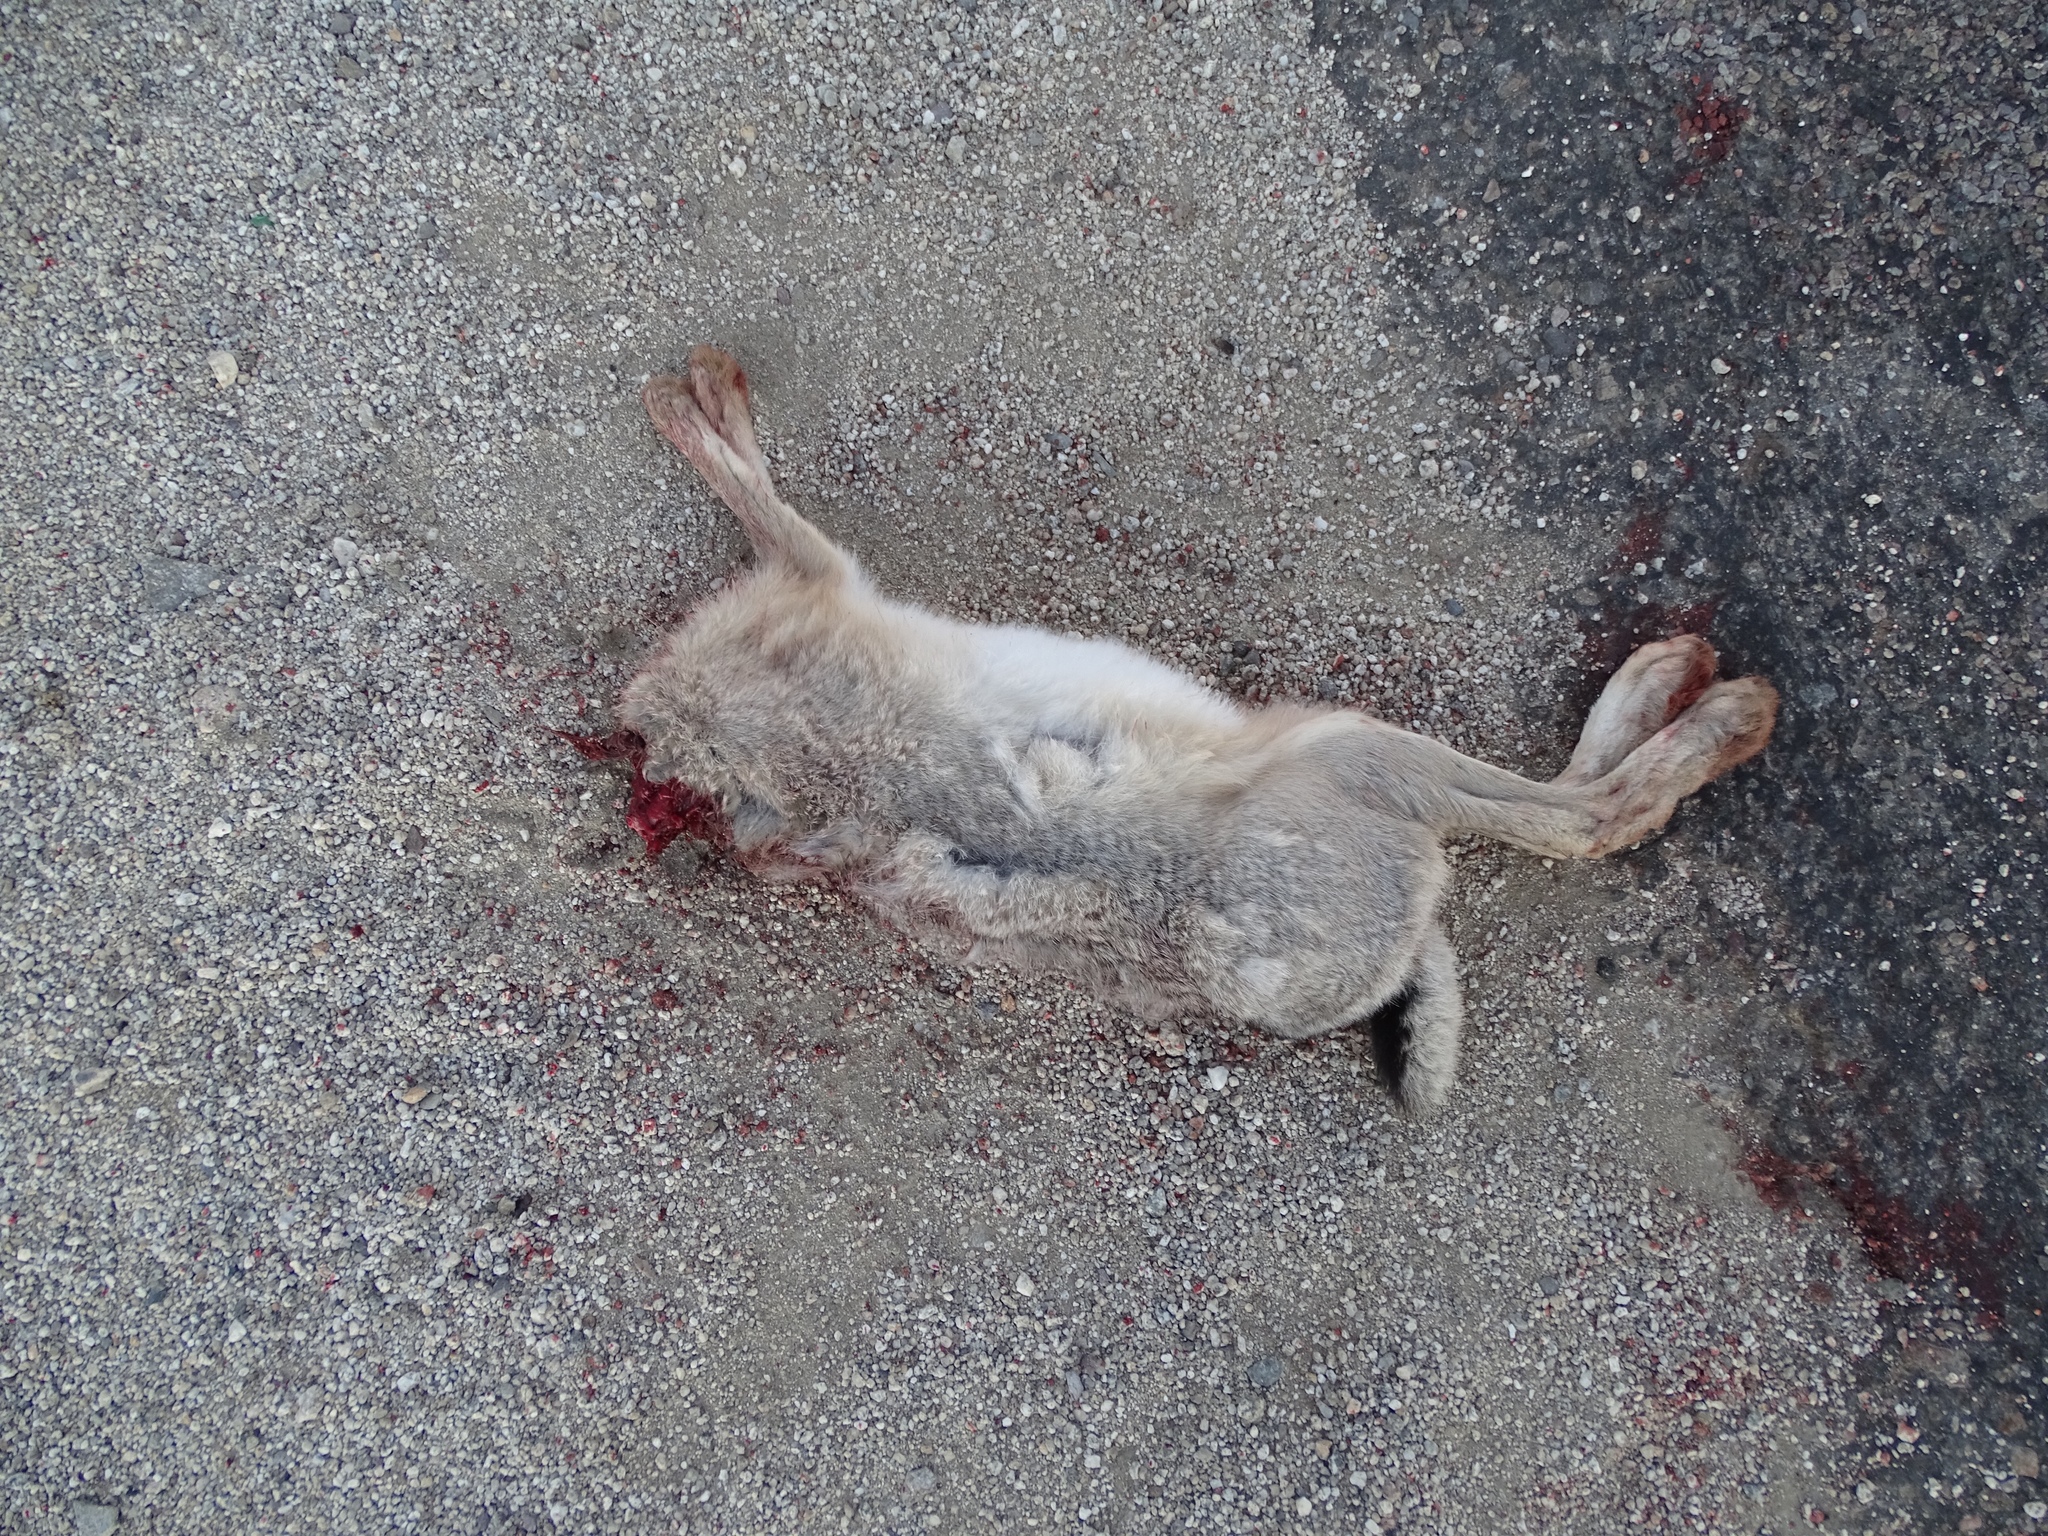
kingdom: Animalia
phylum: Chordata
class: Mammalia
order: Lagomorpha
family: Leporidae
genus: Lepus
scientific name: Lepus californicus
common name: Black-tailed jackrabbit
